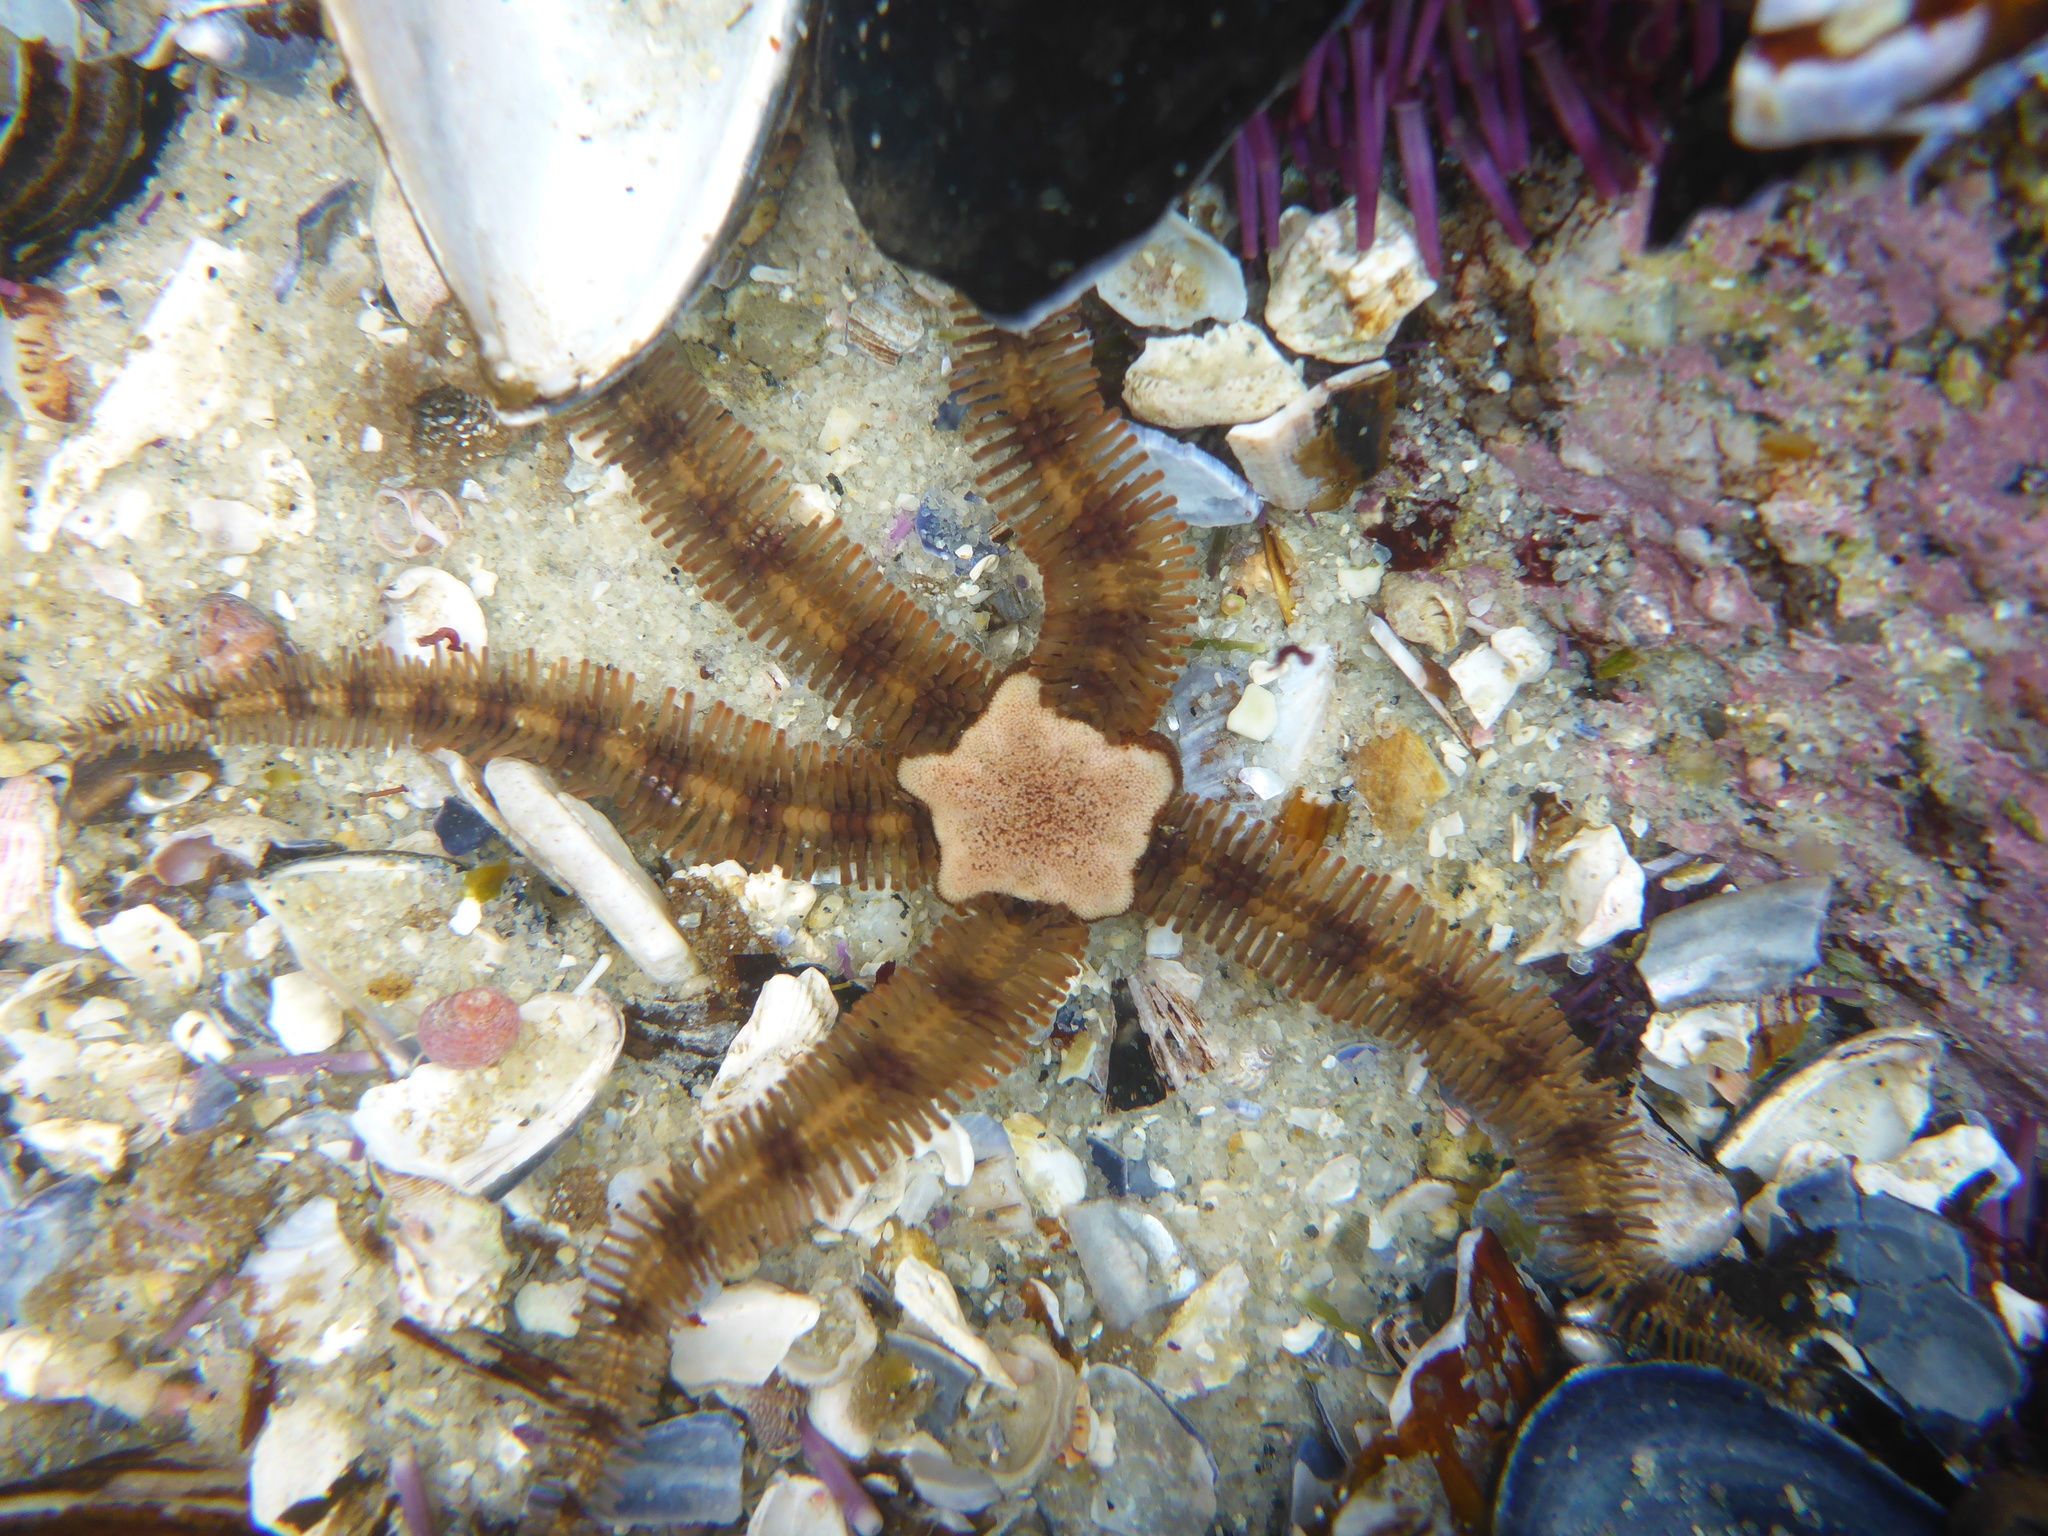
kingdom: Animalia
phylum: Echinodermata
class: Ophiuroidea
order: Ophiacanthida
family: Ophiopteridae
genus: Ophiopteris
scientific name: Ophiopteris papillosa
